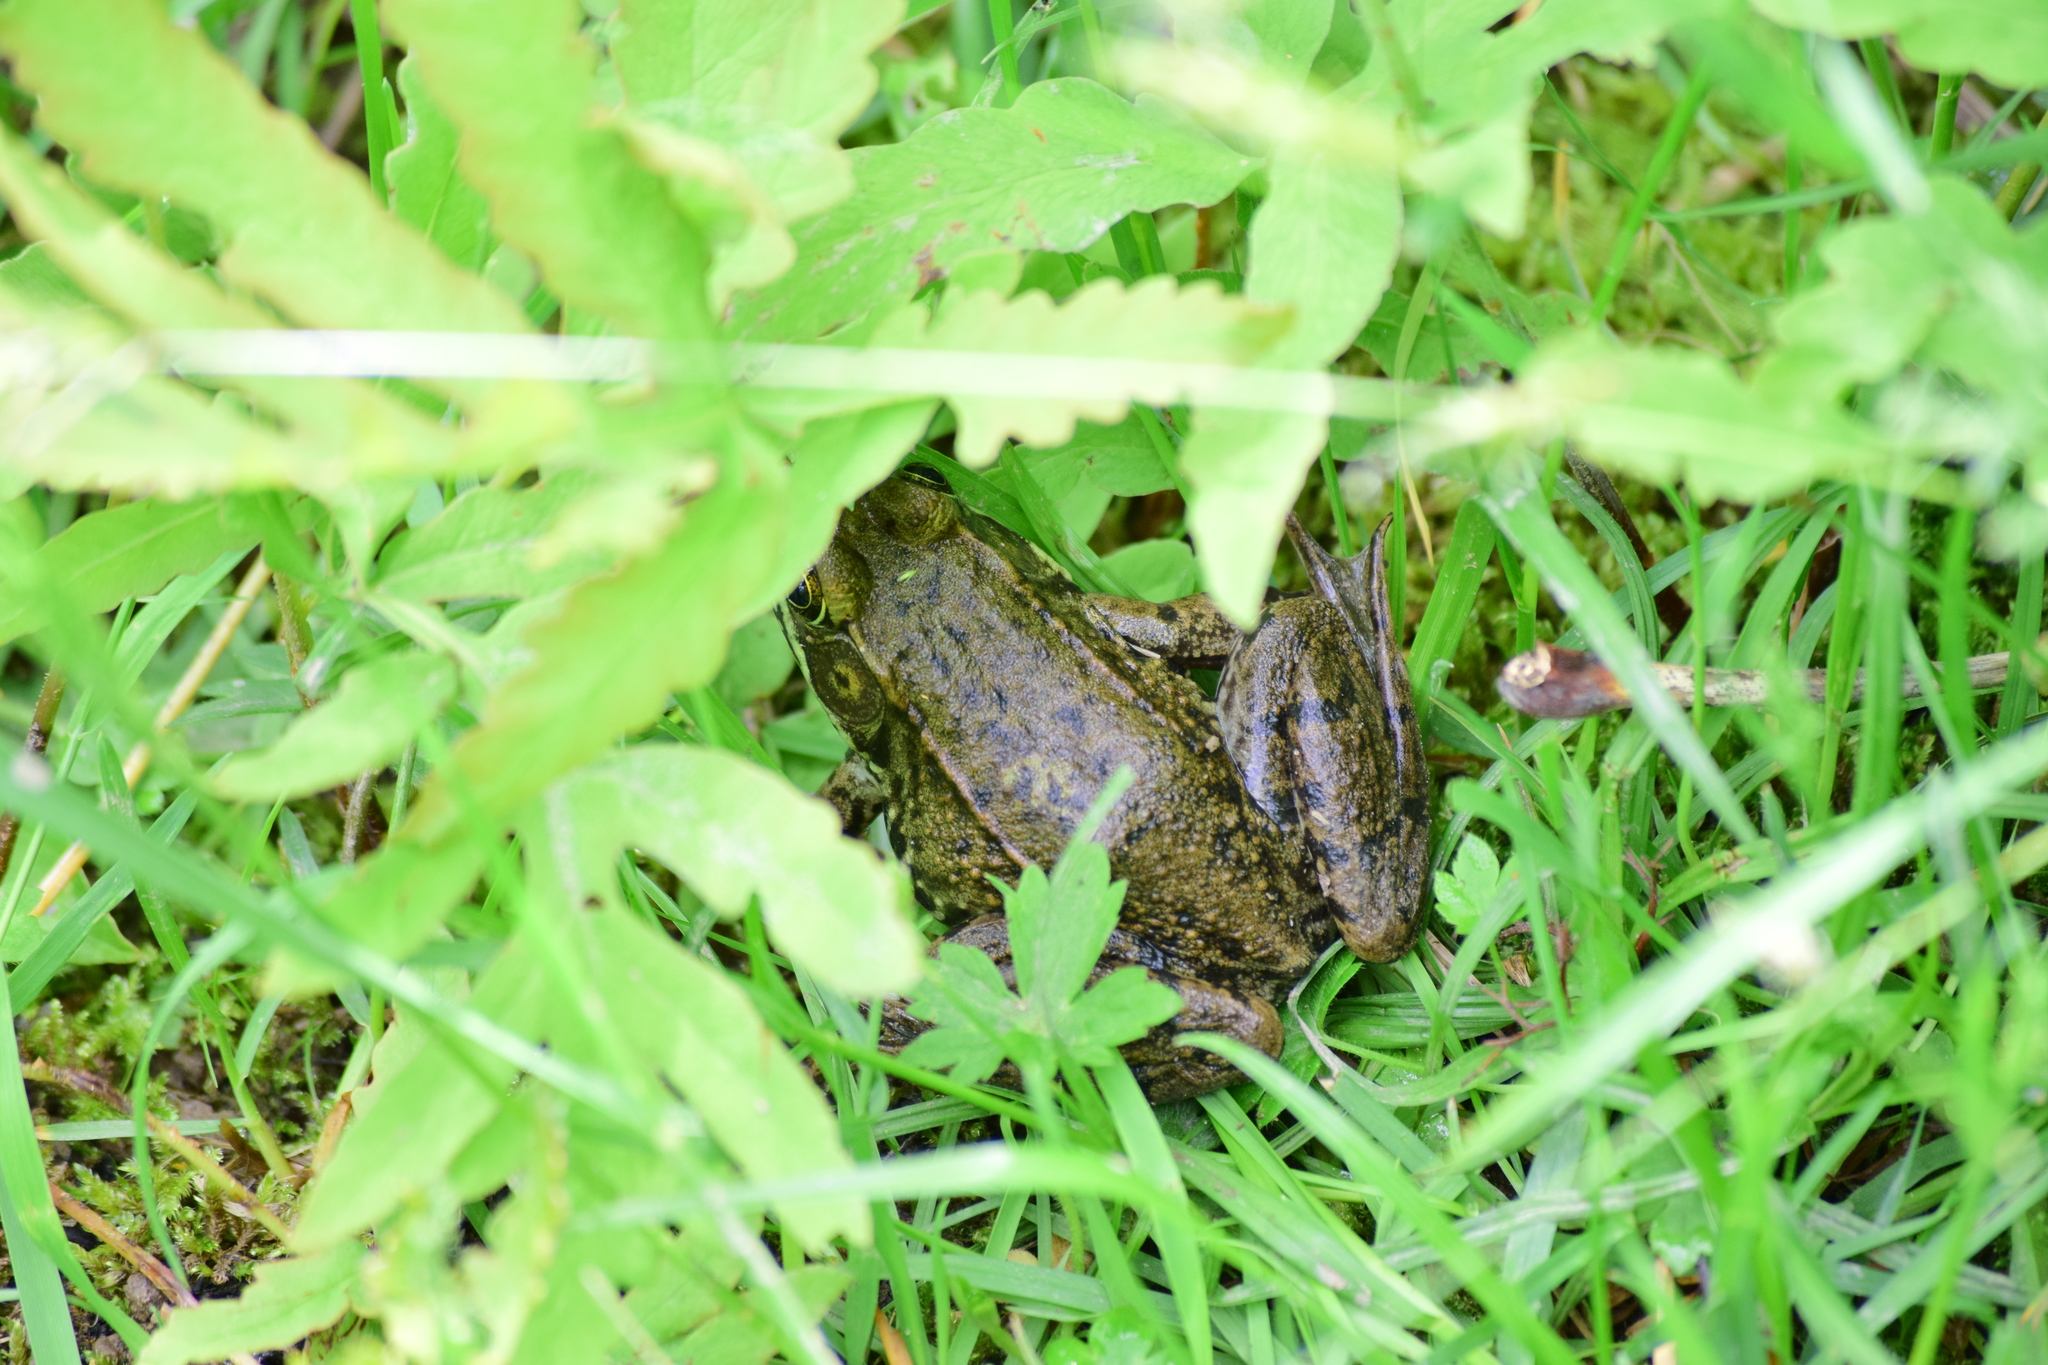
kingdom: Animalia
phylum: Chordata
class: Amphibia
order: Anura
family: Ranidae
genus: Lithobates
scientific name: Lithobates clamitans
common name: Green frog
